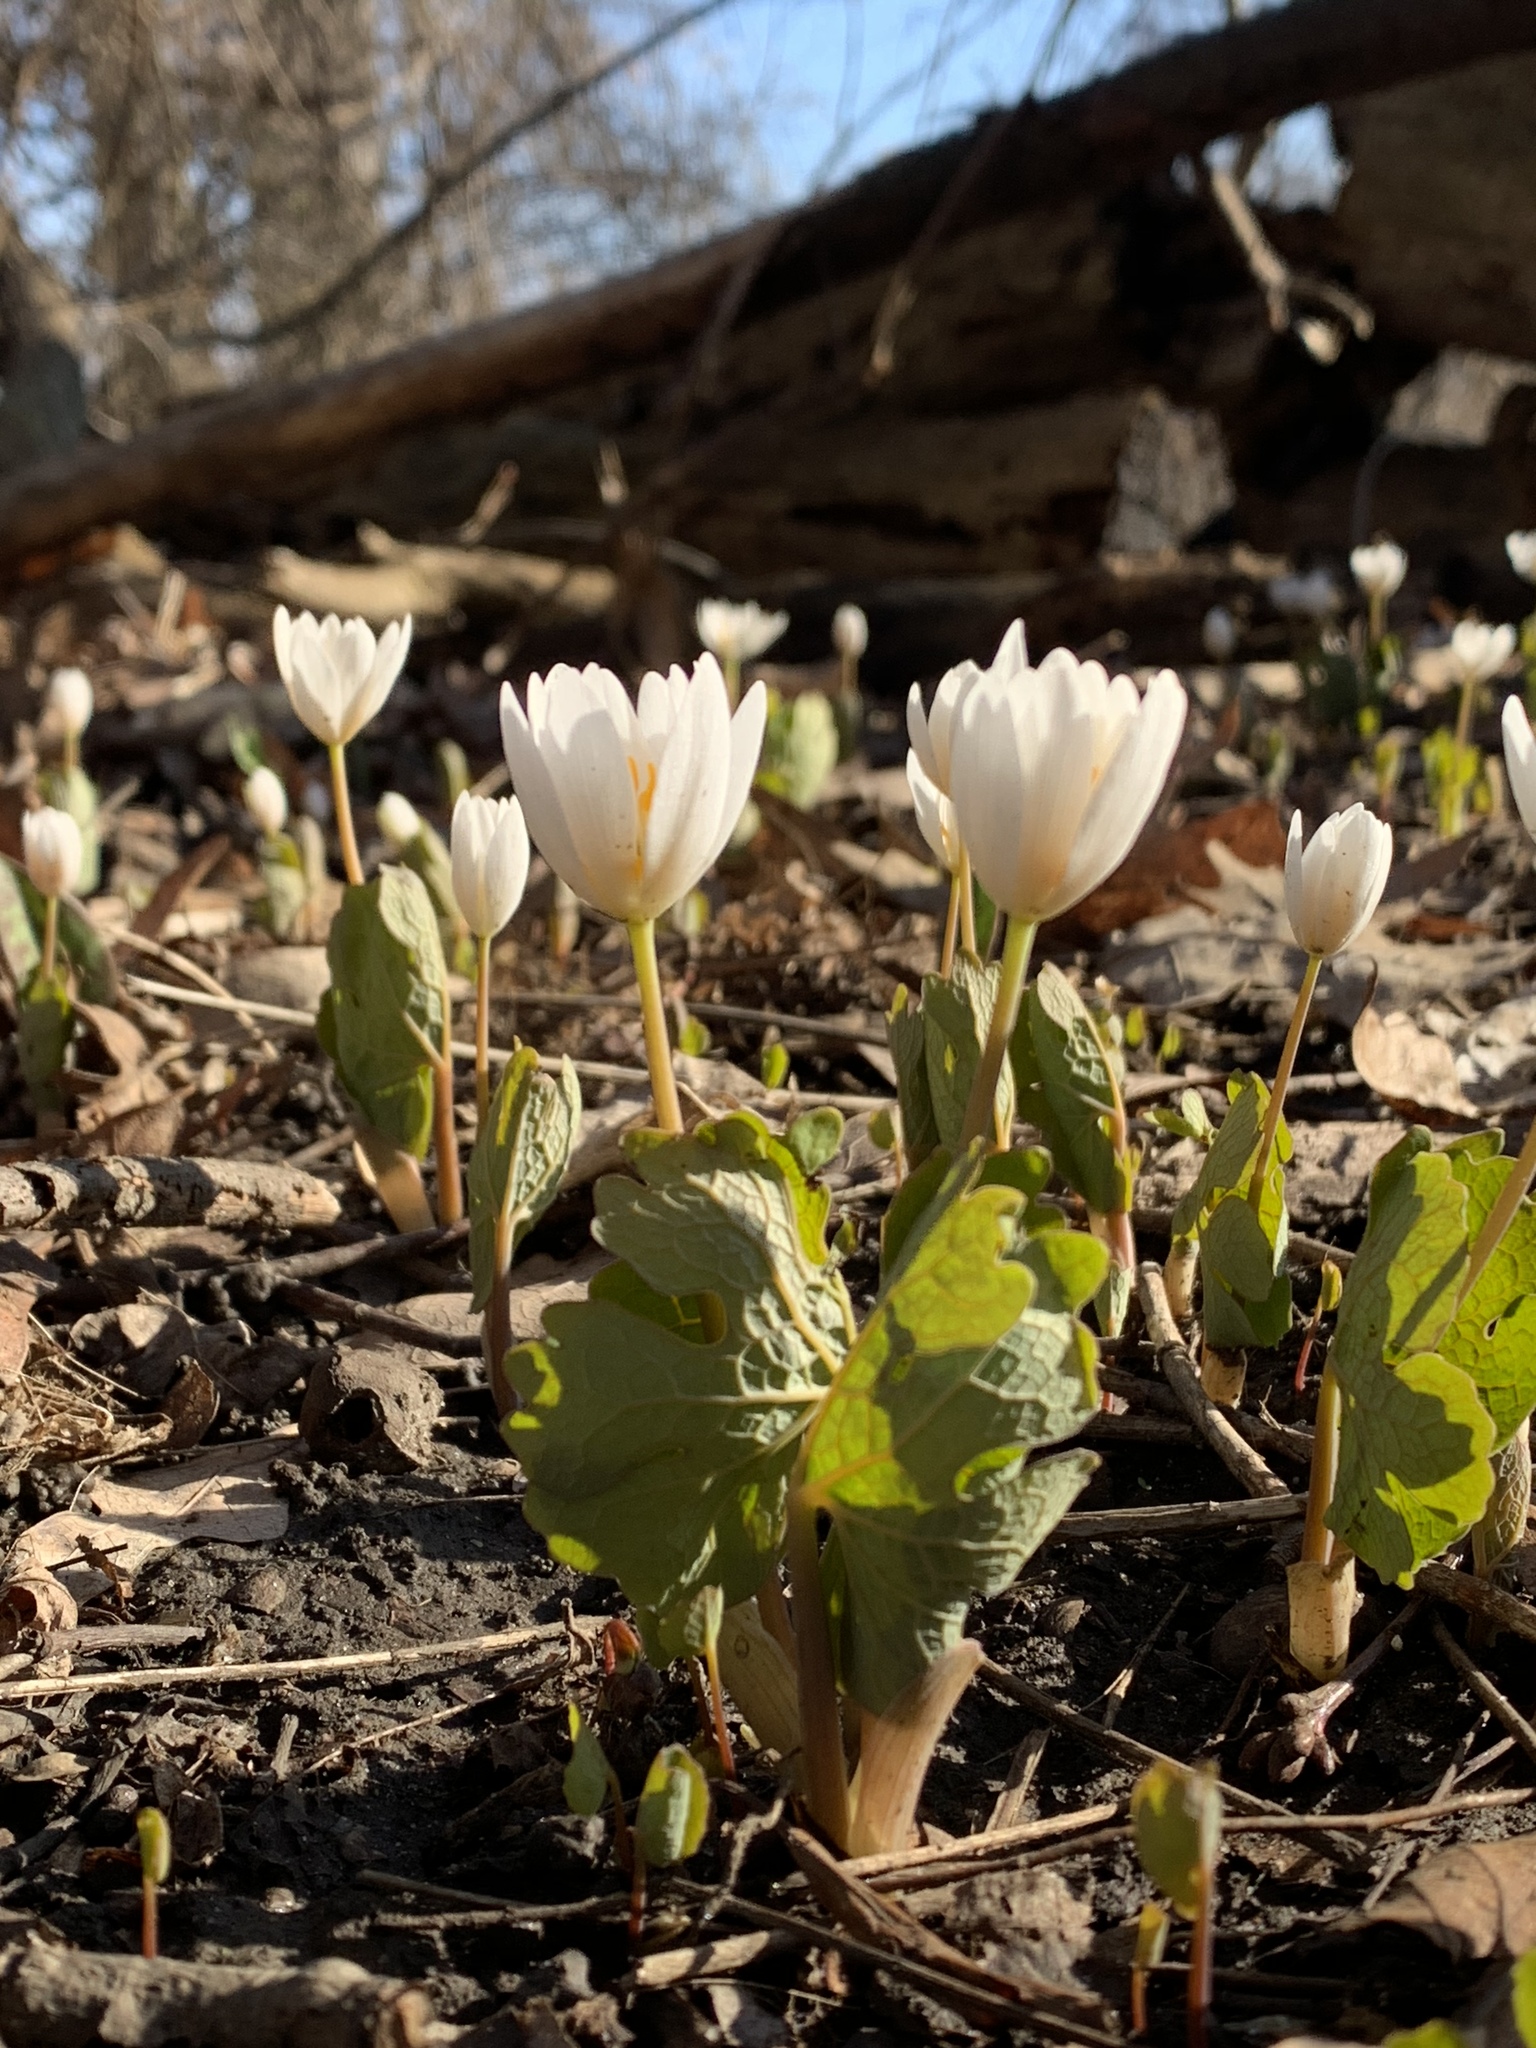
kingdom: Plantae
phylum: Tracheophyta
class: Magnoliopsida
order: Ranunculales
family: Papaveraceae
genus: Sanguinaria
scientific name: Sanguinaria canadensis
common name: Bloodroot
